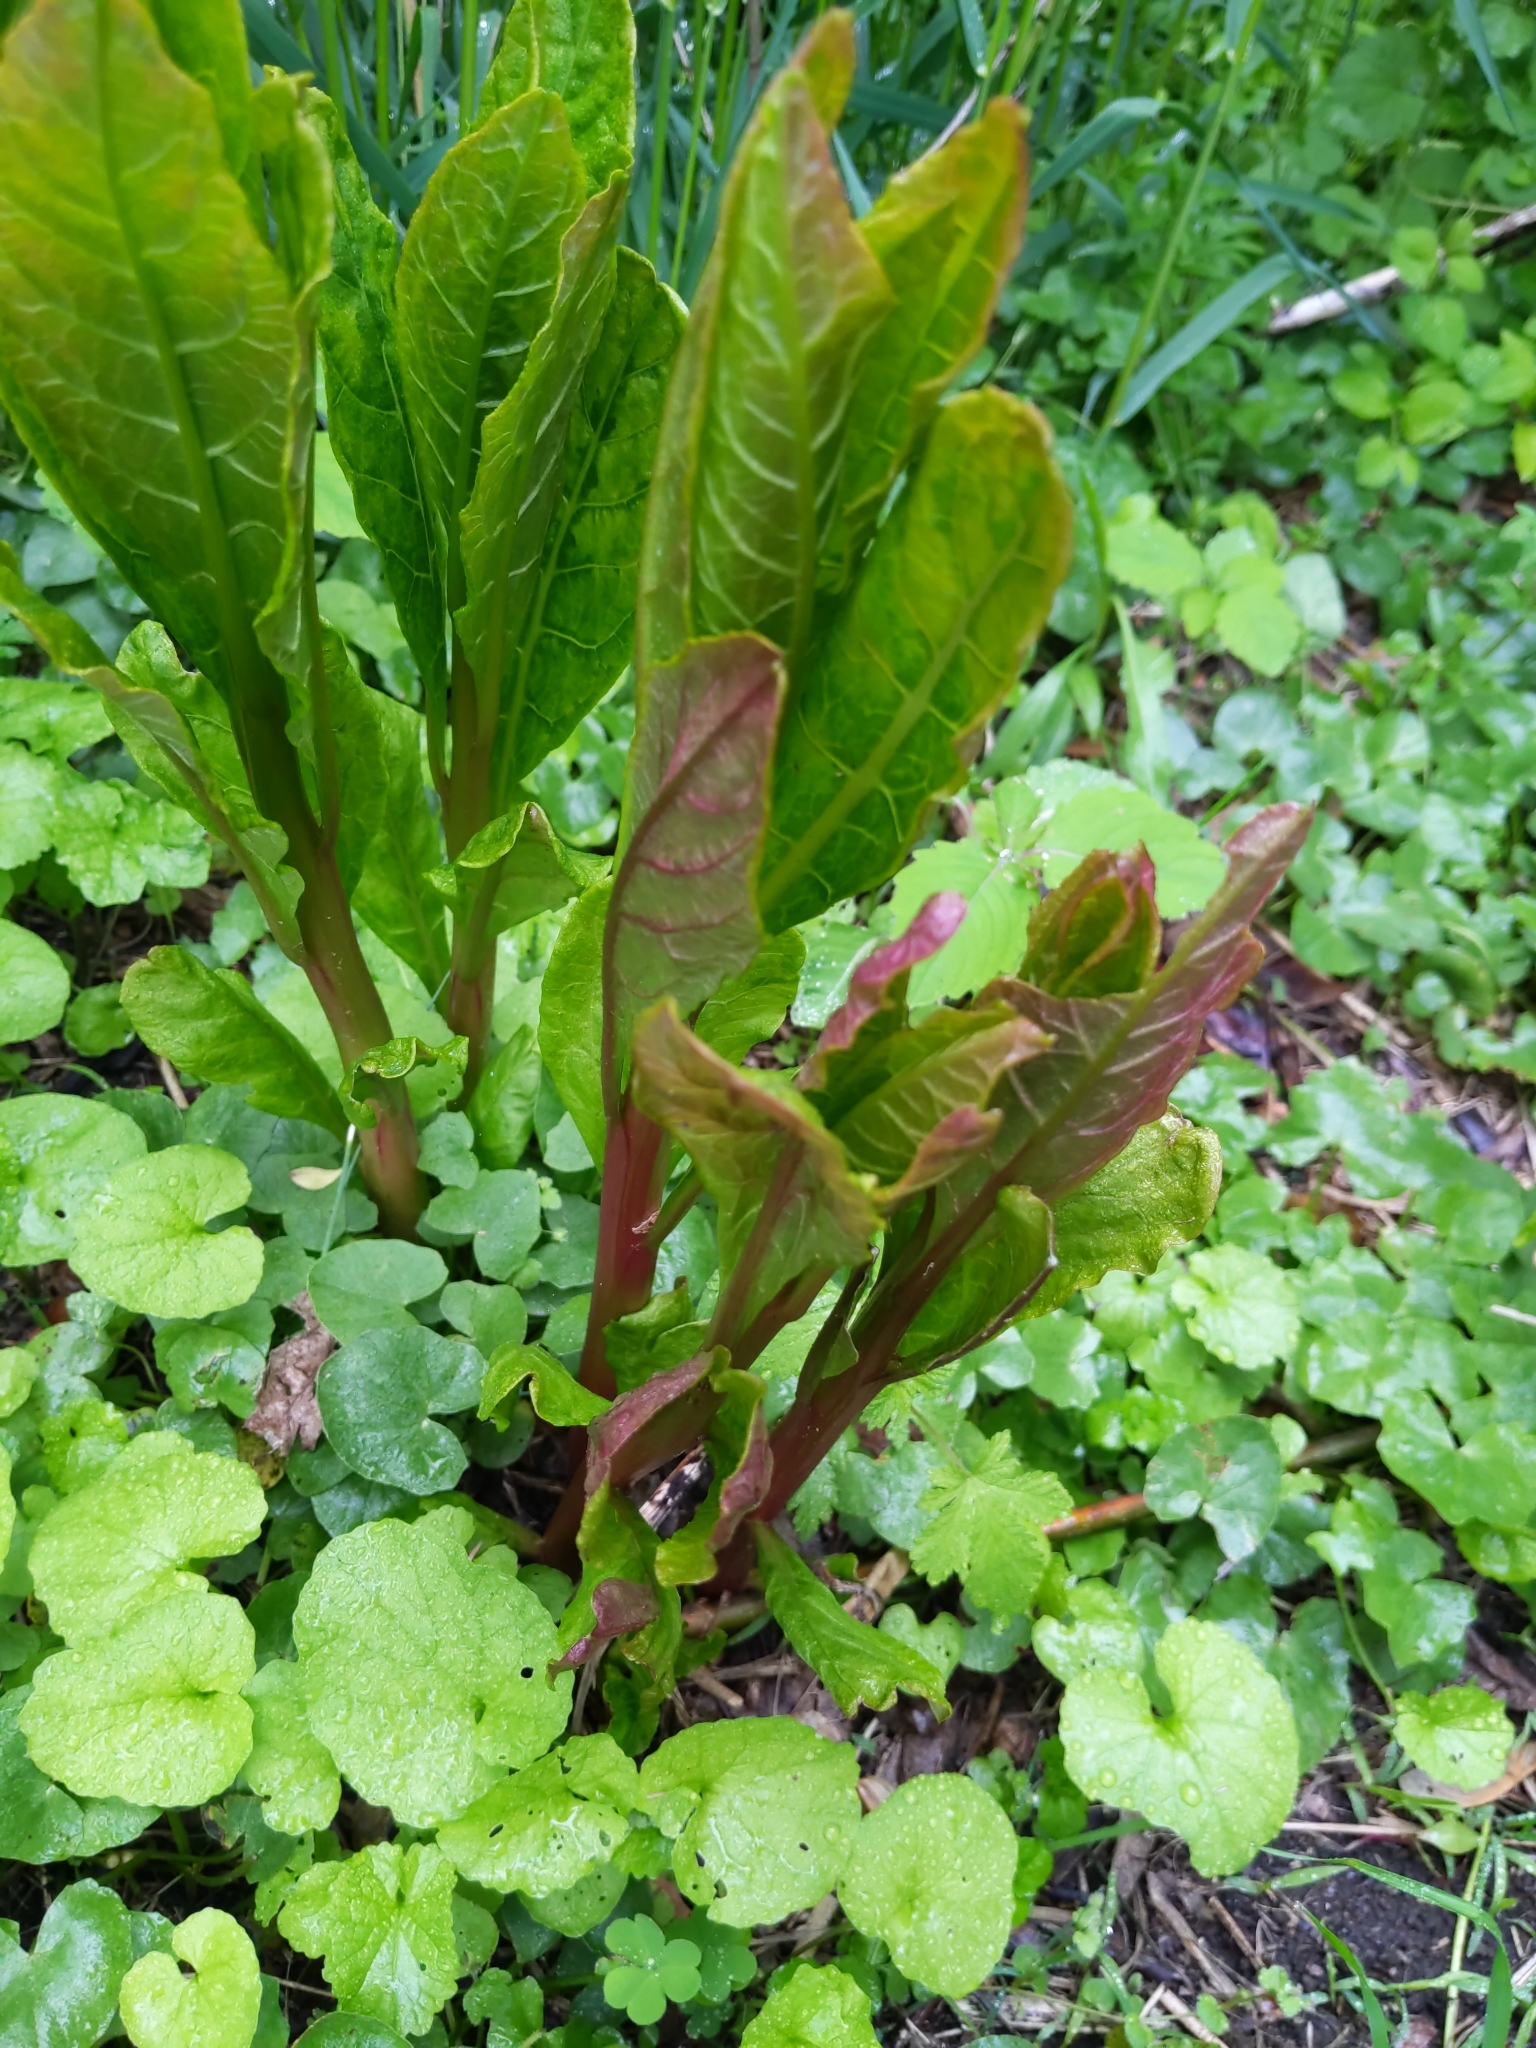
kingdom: Plantae
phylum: Tracheophyta
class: Magnoliopsida
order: Caryophyllales
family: Phytolaccaceae
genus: Phytolacca
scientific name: Phytolacca americana
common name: American pokeweed
